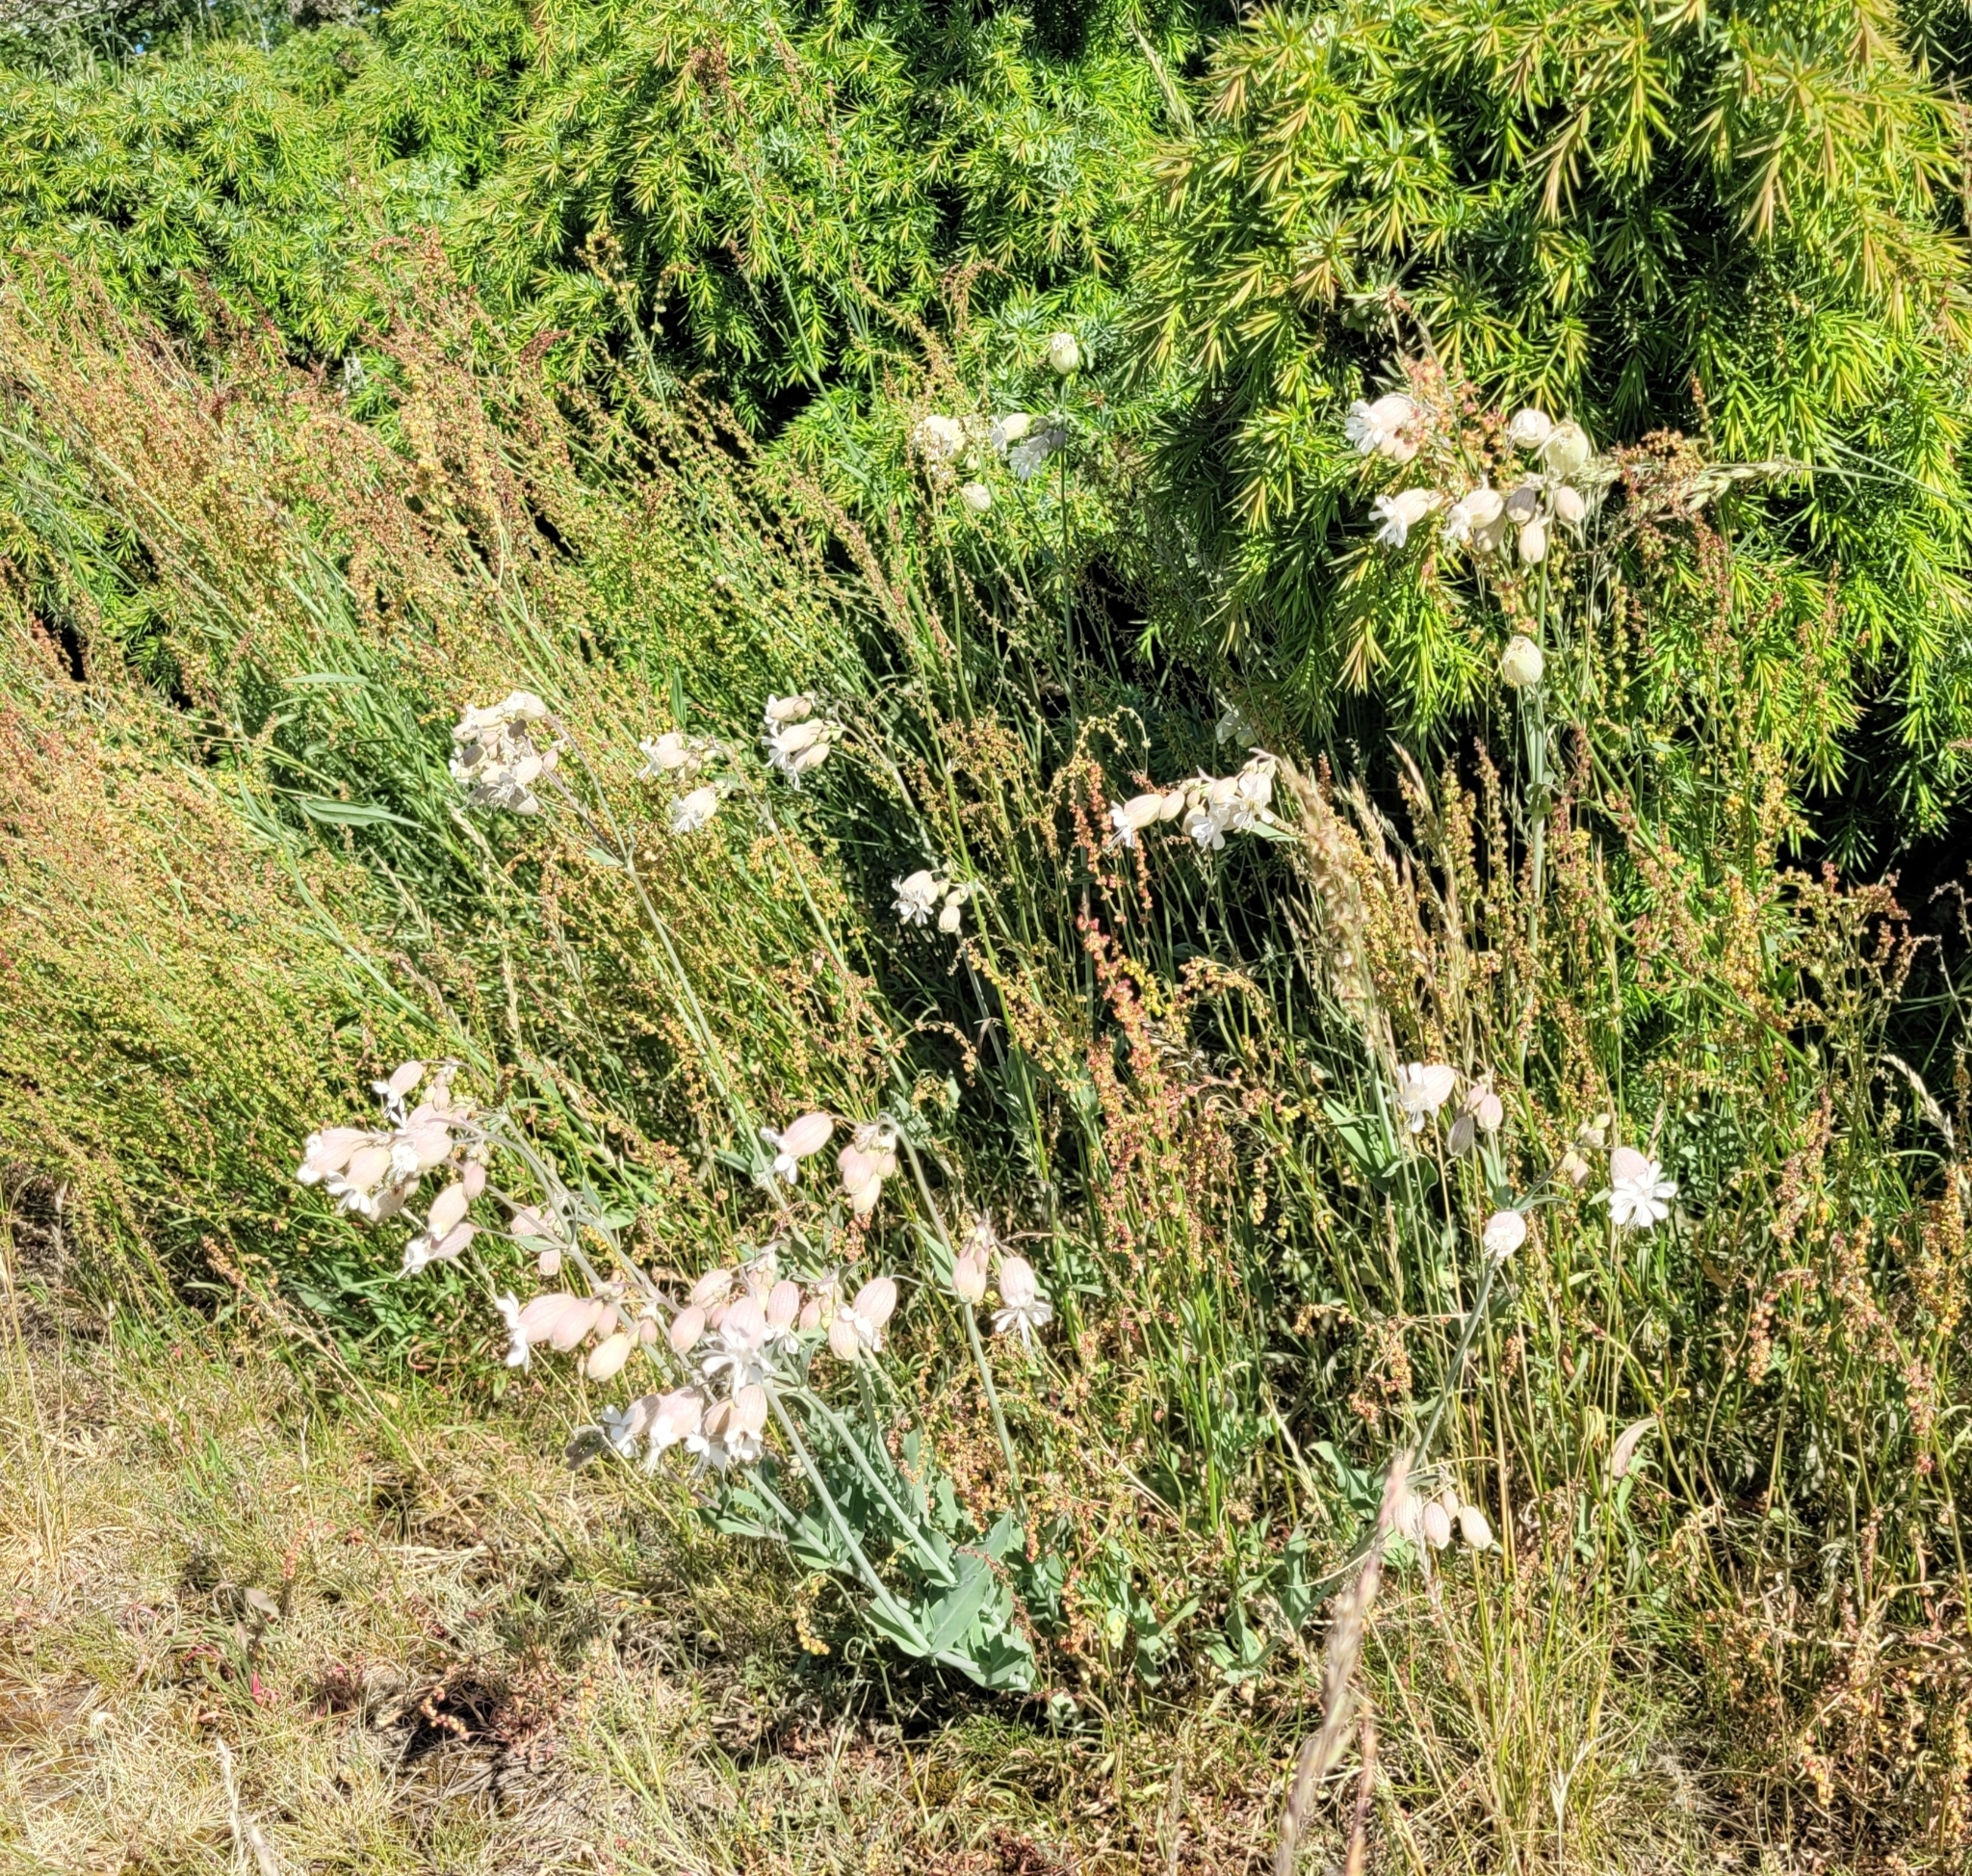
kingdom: Plantae
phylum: Tracheophyta
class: Magnoliopsida
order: Caryophyllales
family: Caryophyllaceae
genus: Silene
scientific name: Silene vulgaris
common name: Bladder campion
